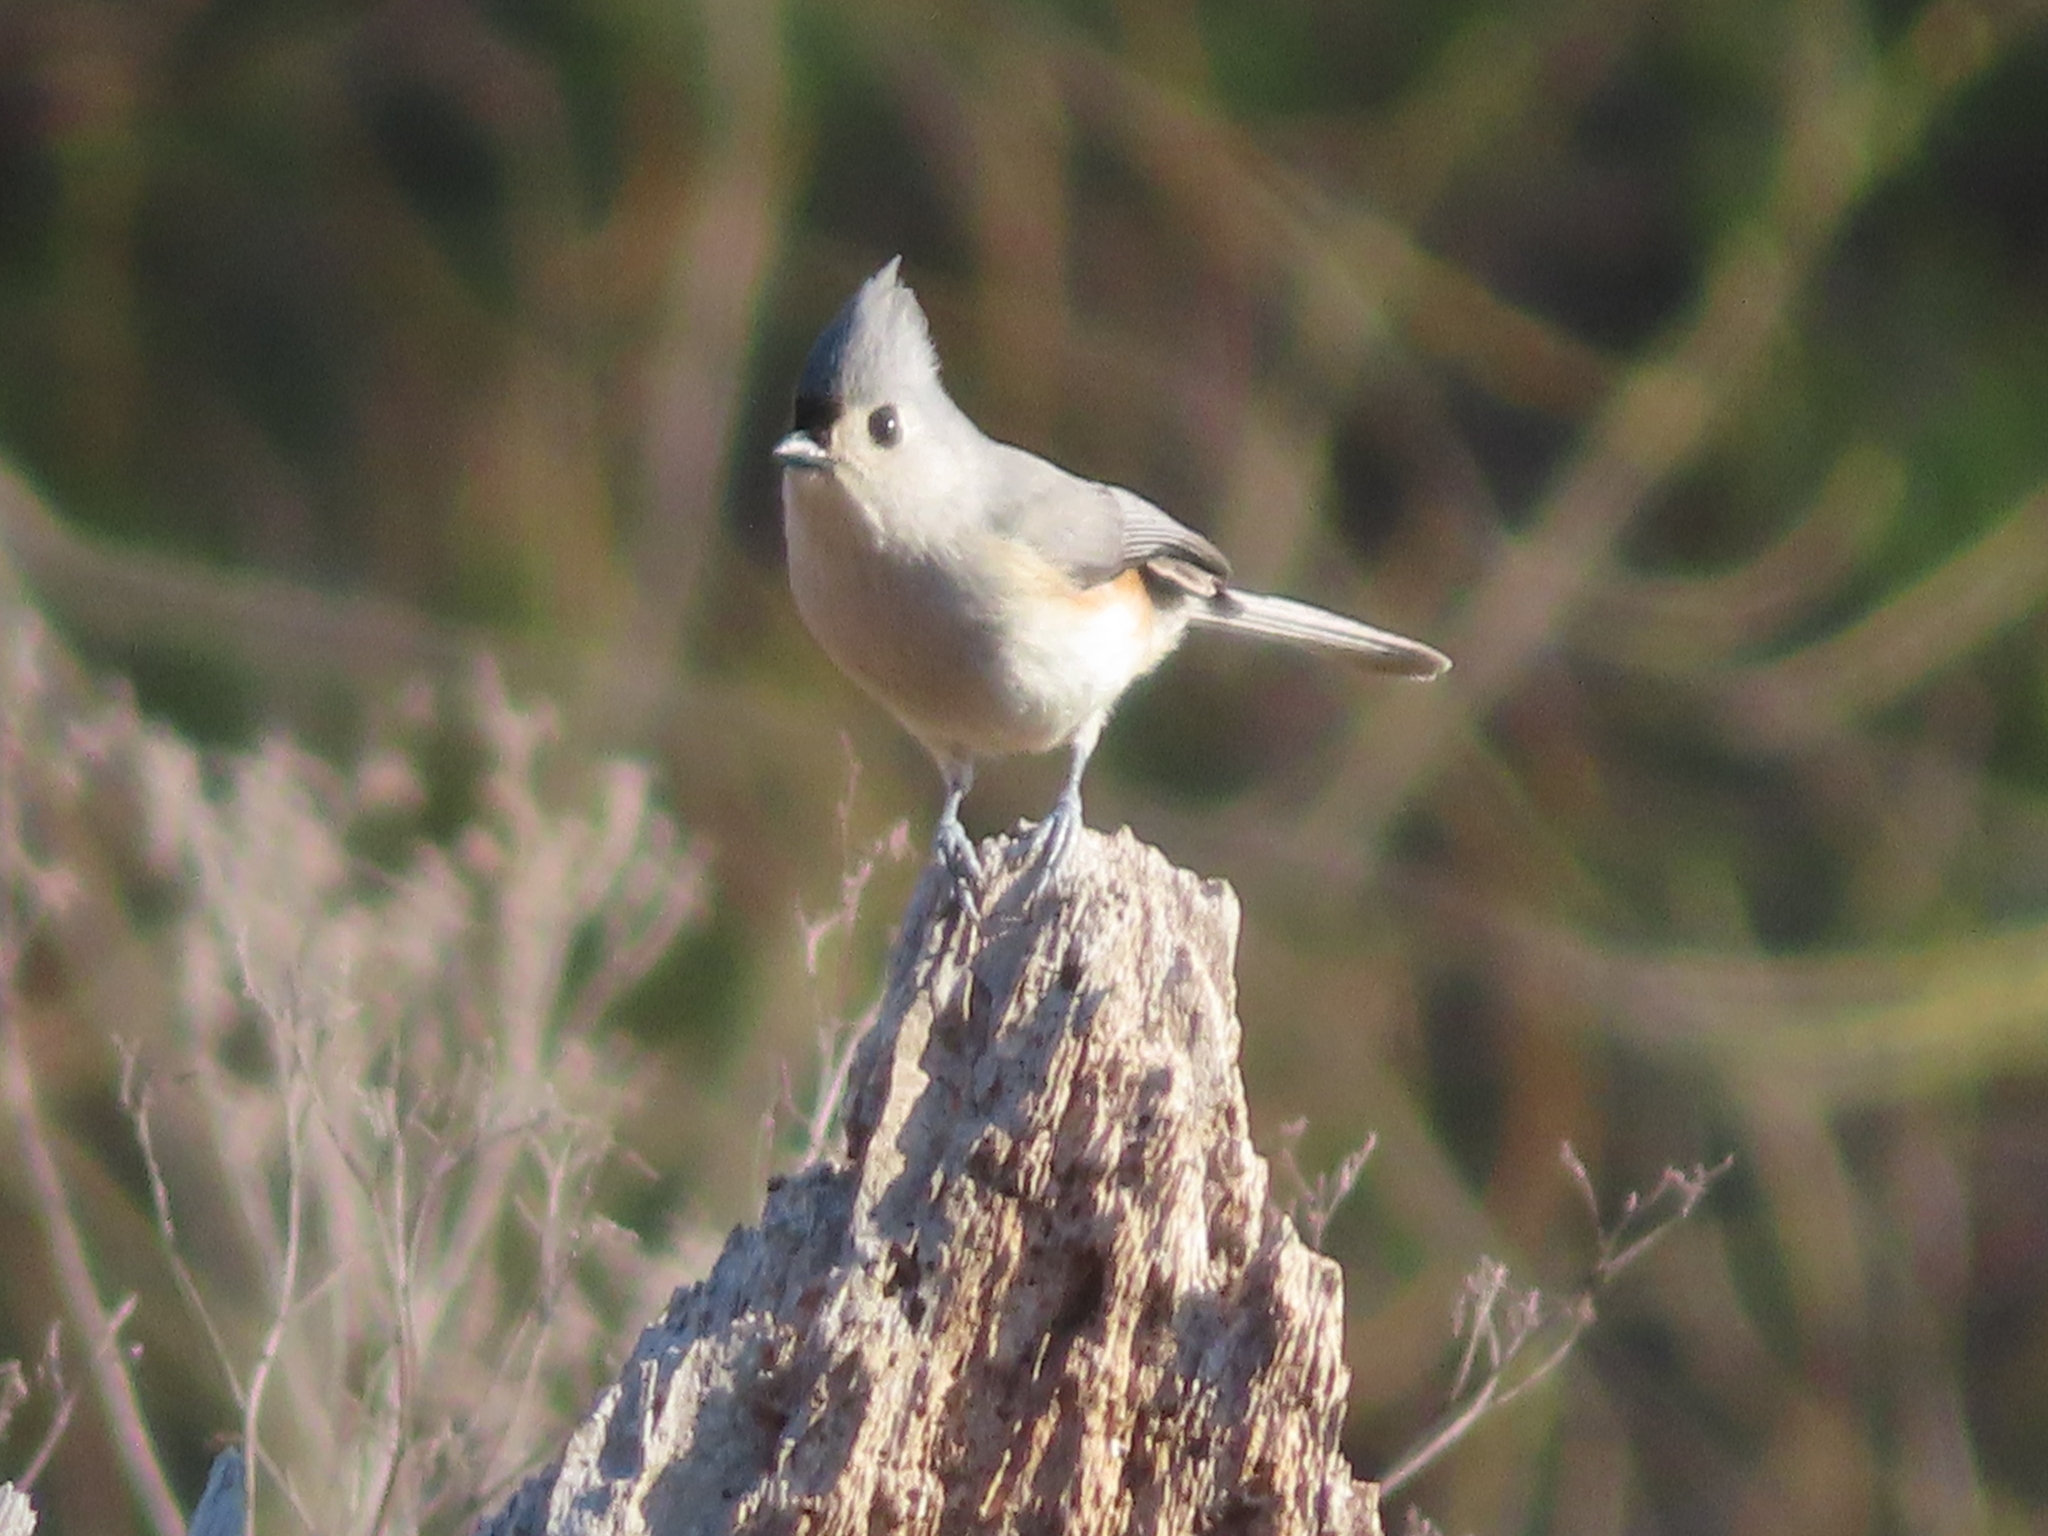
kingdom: Animalia
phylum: Chordata
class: Aves
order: Passeriformes
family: Paridae
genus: Baeolophus
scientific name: Baeolophus bicolor
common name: Tufted titmouse
